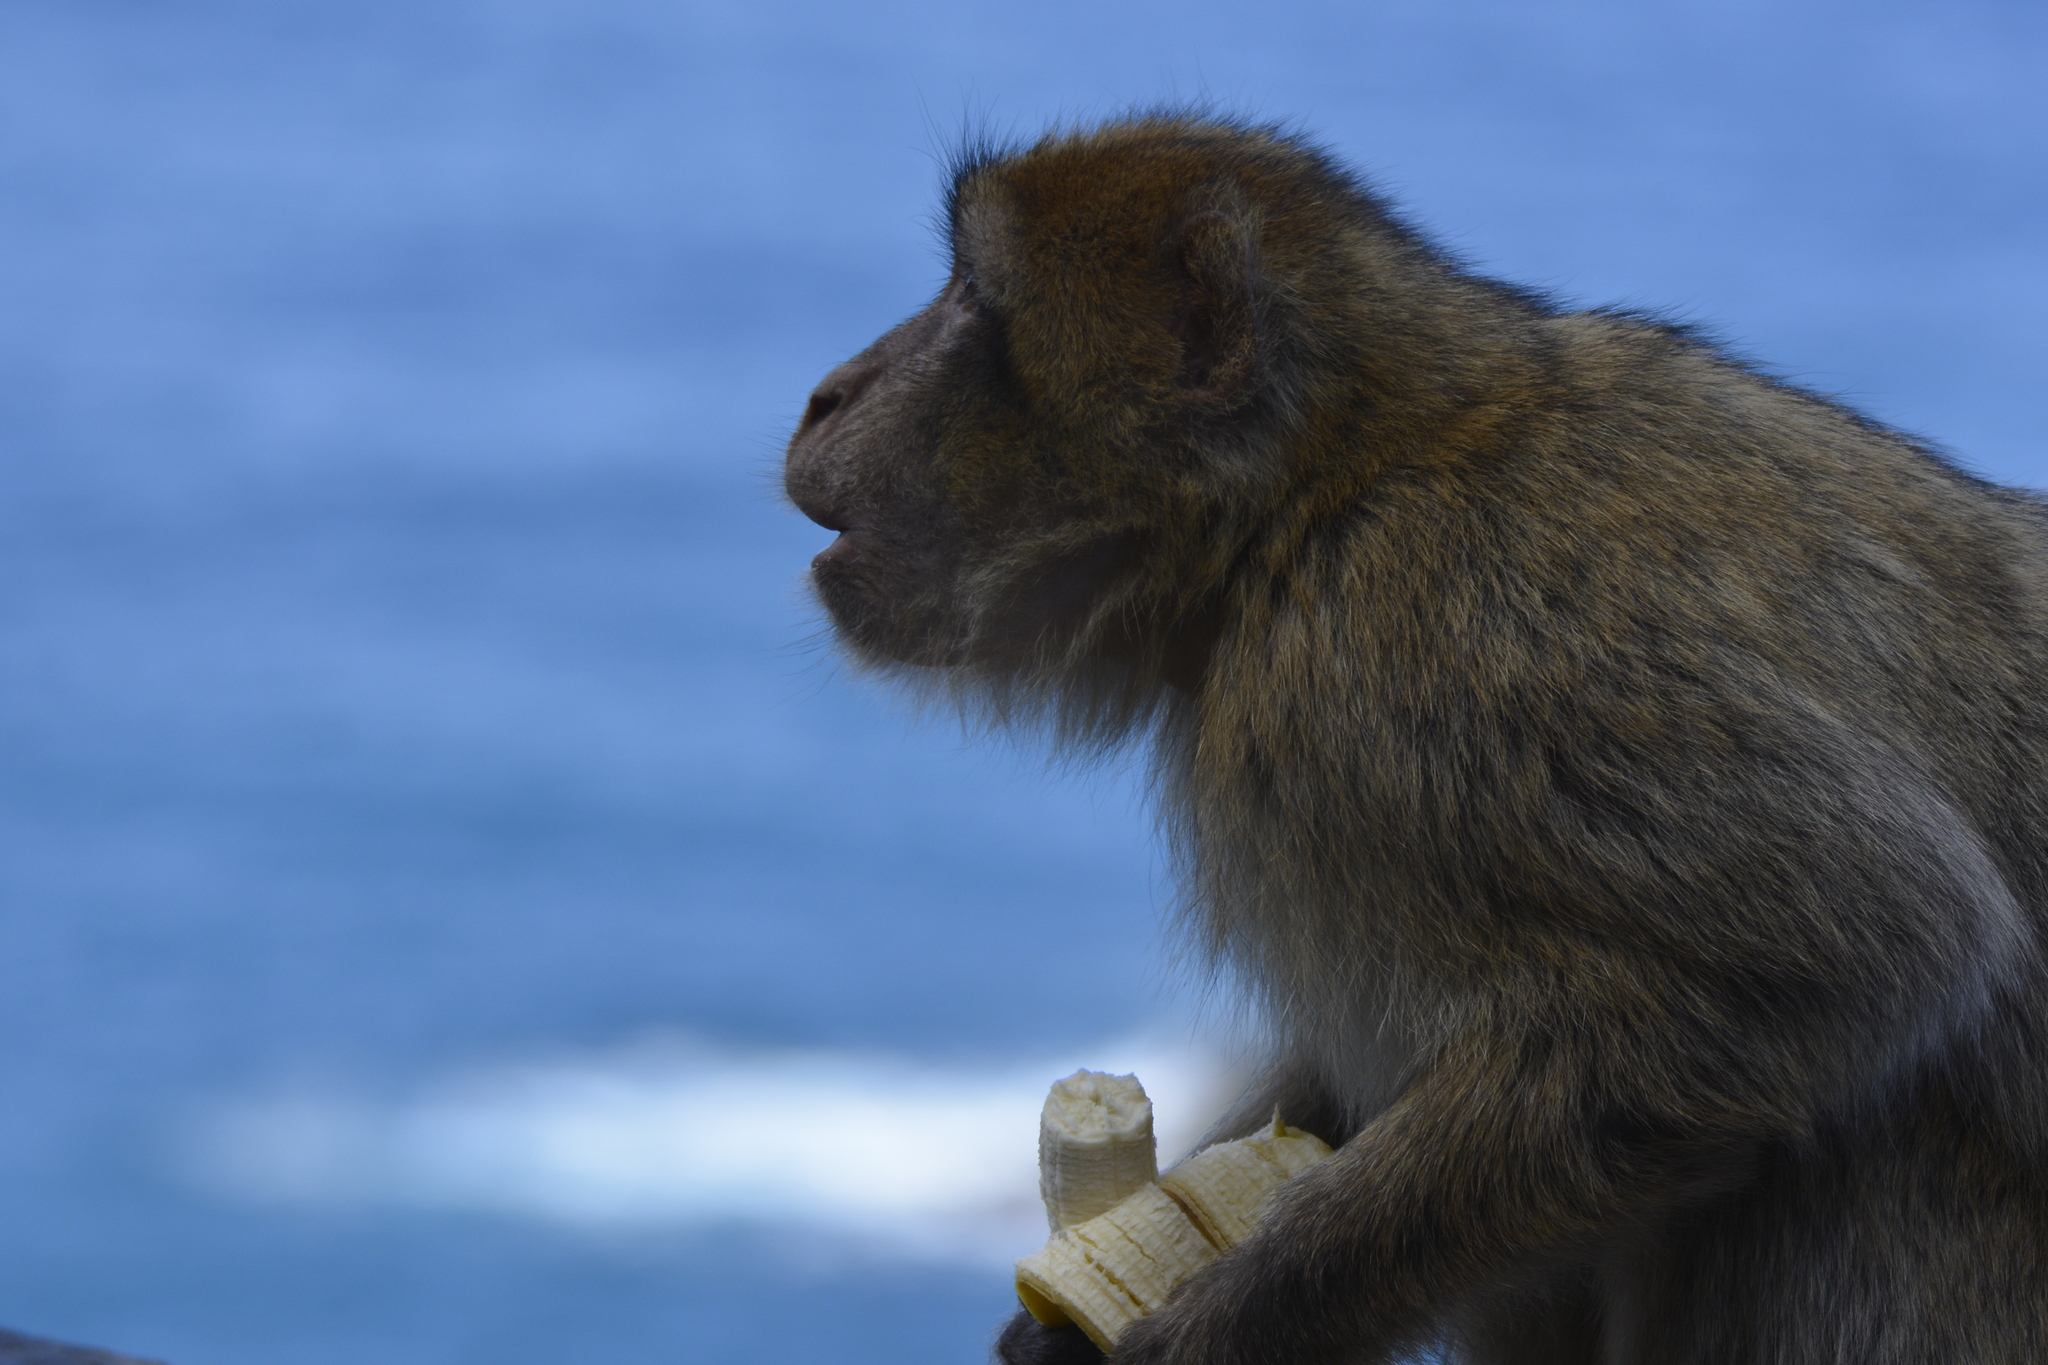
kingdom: Animalia
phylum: Chordata
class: Mammalia
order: Primates
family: Cercopithecidae
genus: Macaca
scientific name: Macaca sylvanus
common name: Barbary macaque
